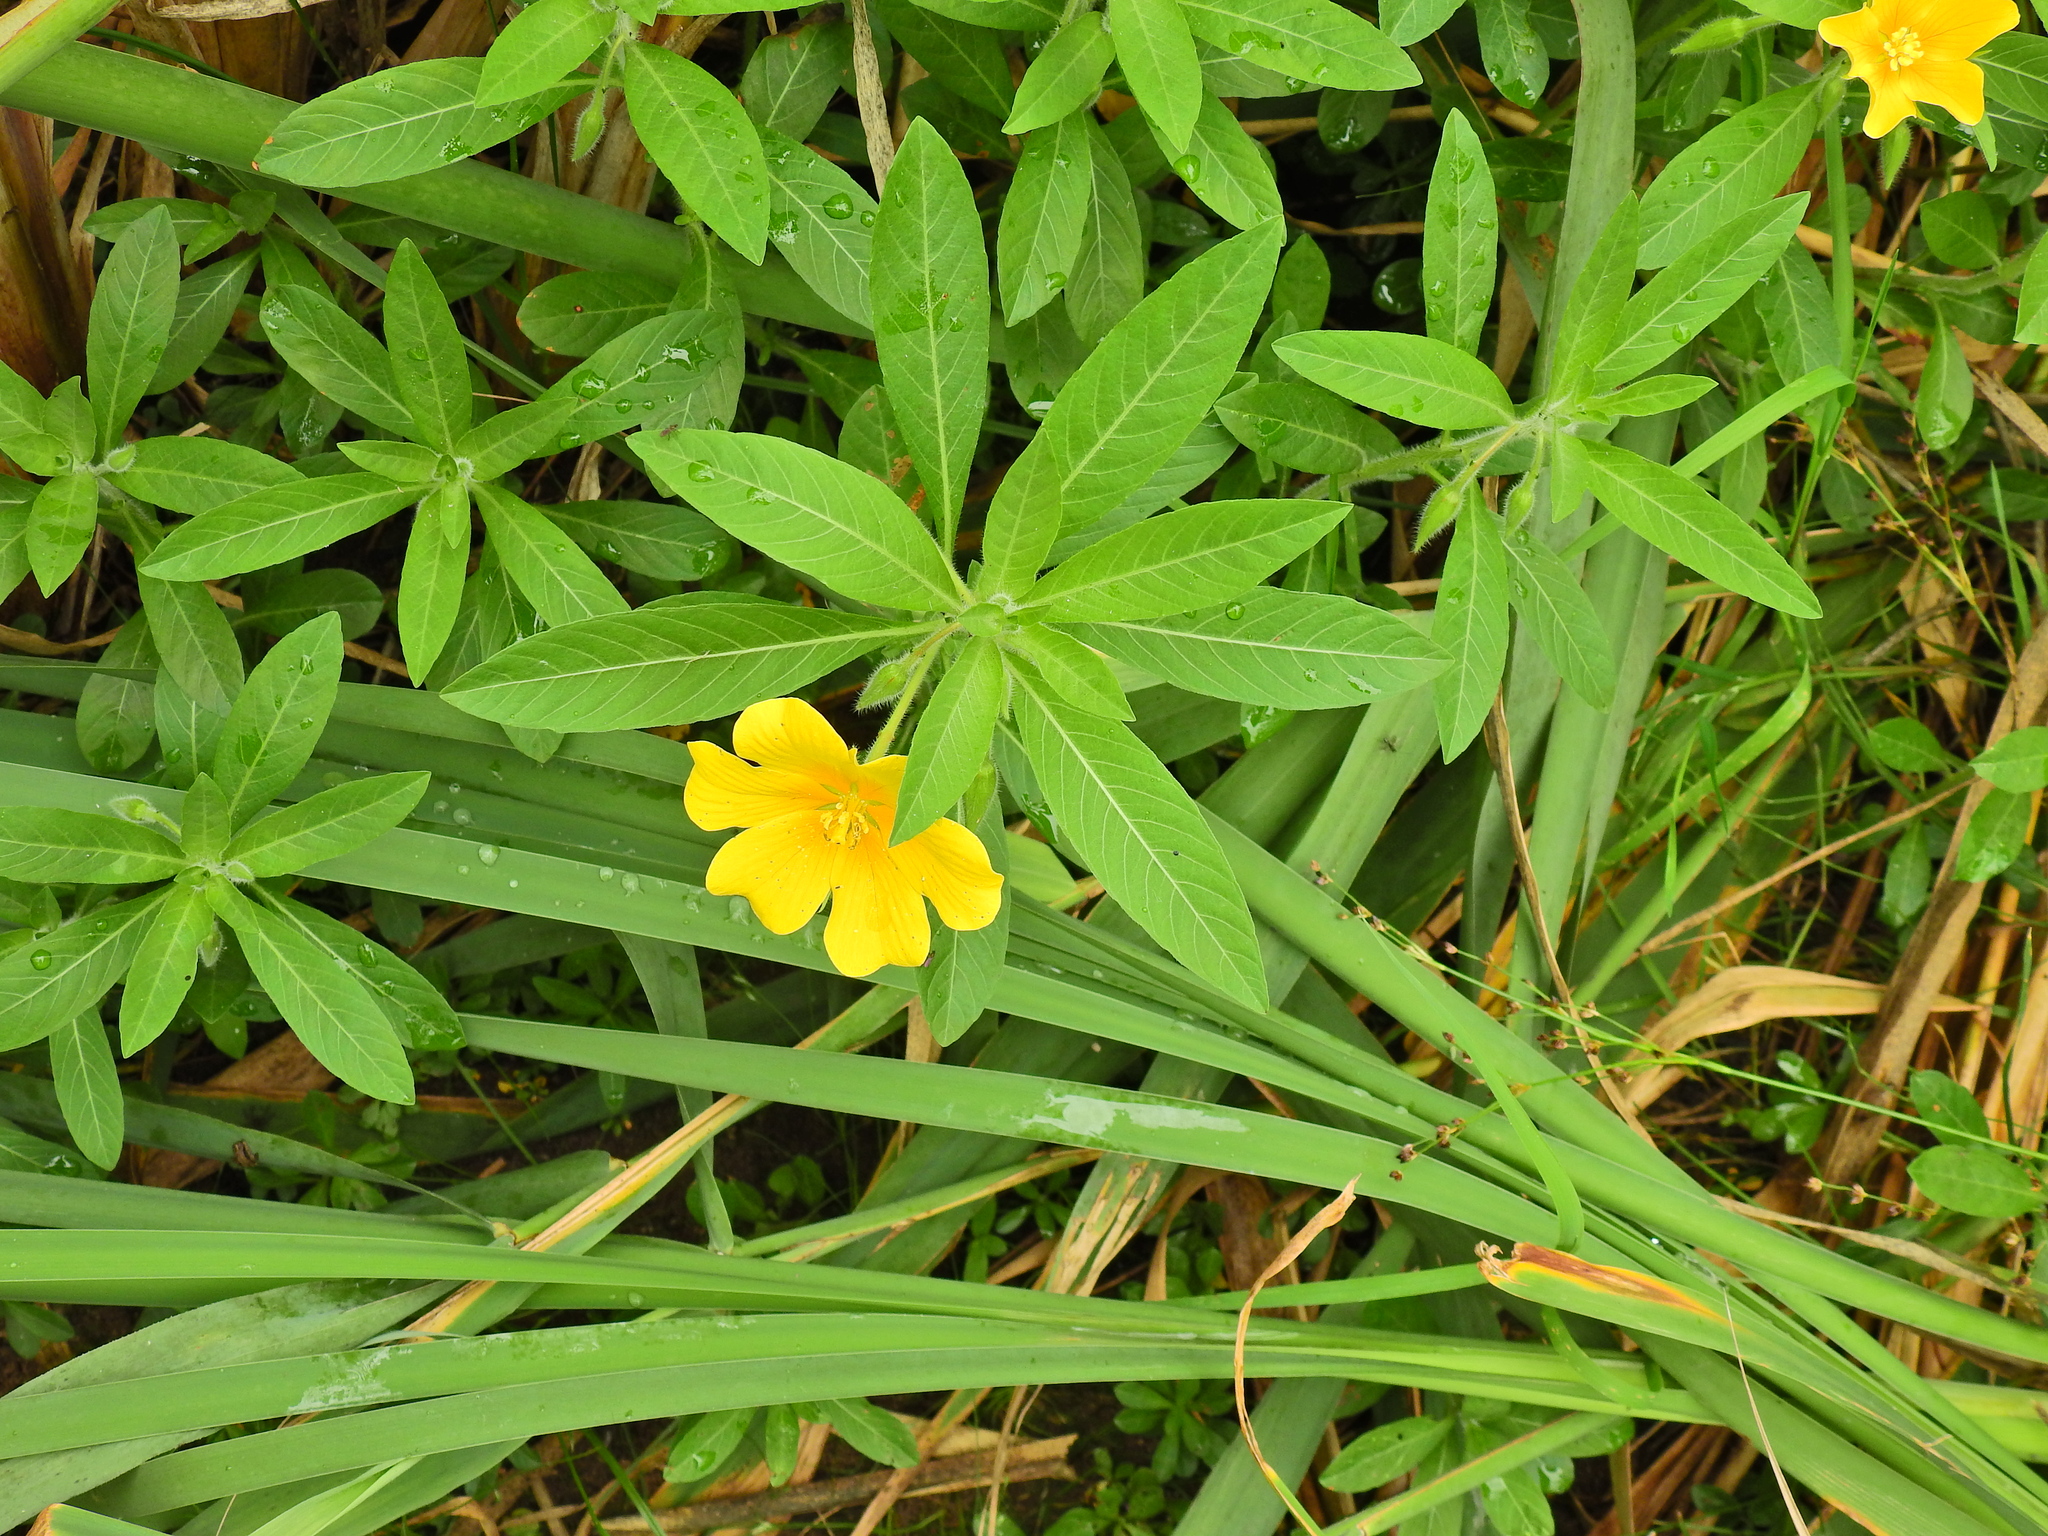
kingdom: Plantae
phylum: Tracheophyta
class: Magnoliopsida
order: Myrtales
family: Onagraceae
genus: Ludwigia
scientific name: Ludwigia hexapetala
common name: Water-primrose
